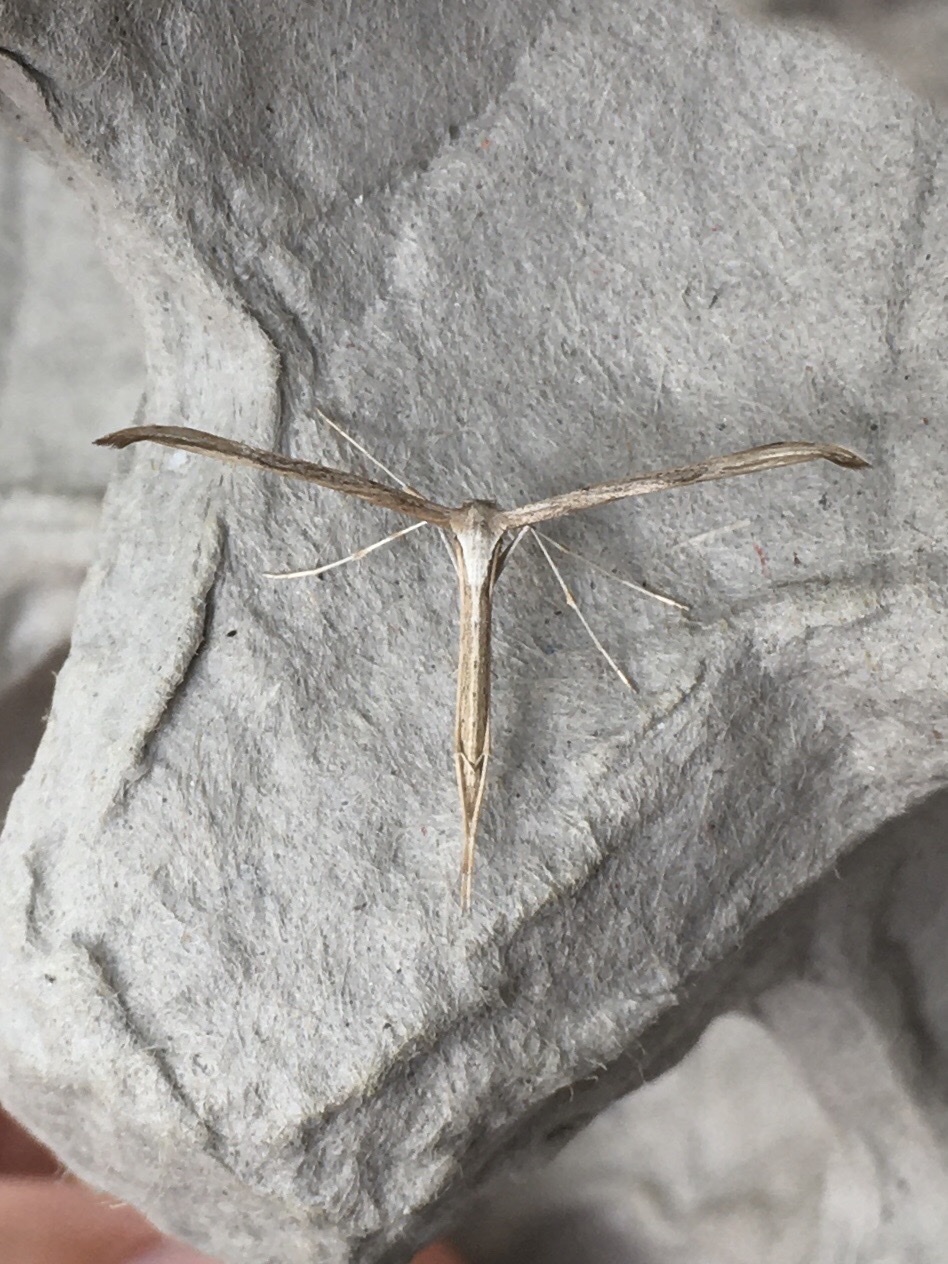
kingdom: Animalia
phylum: Arthropoda
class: Insecta
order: Lepidoptera
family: Pterophoridae
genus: Emmelina
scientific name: Emmelina monodactyla
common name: Common plume
